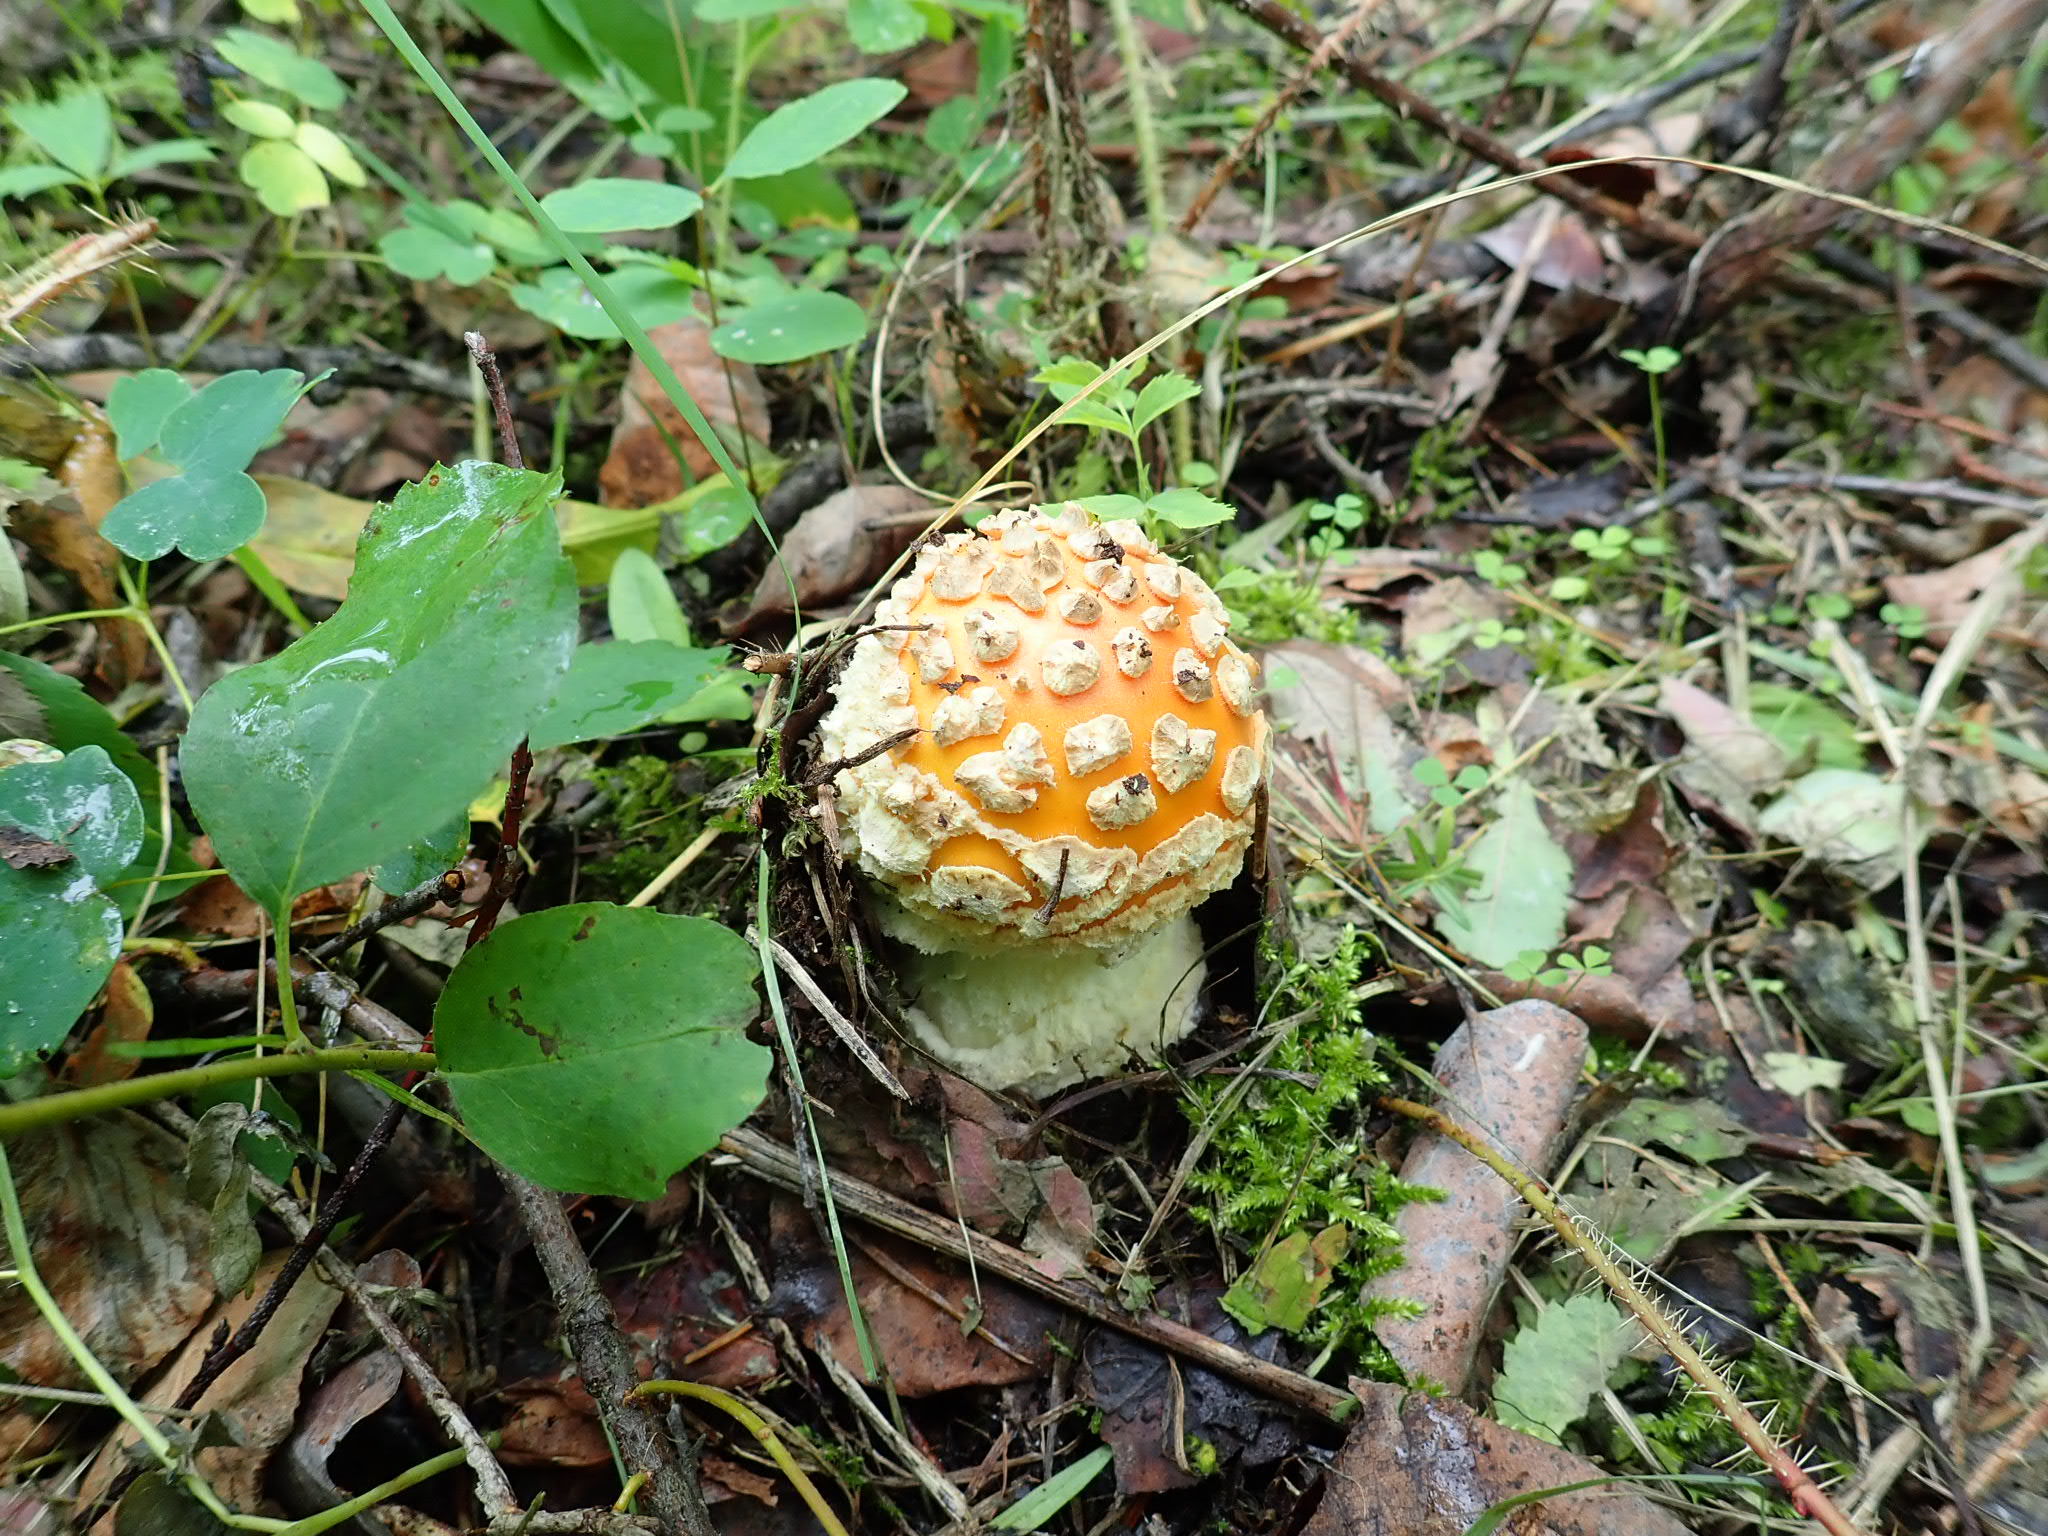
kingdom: Fungi
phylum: Basidiomycota
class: Agaricomycetes
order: Agaricales
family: Amanitaceae
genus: Amanita
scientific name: Amanita muscaria
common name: Fly agaric
